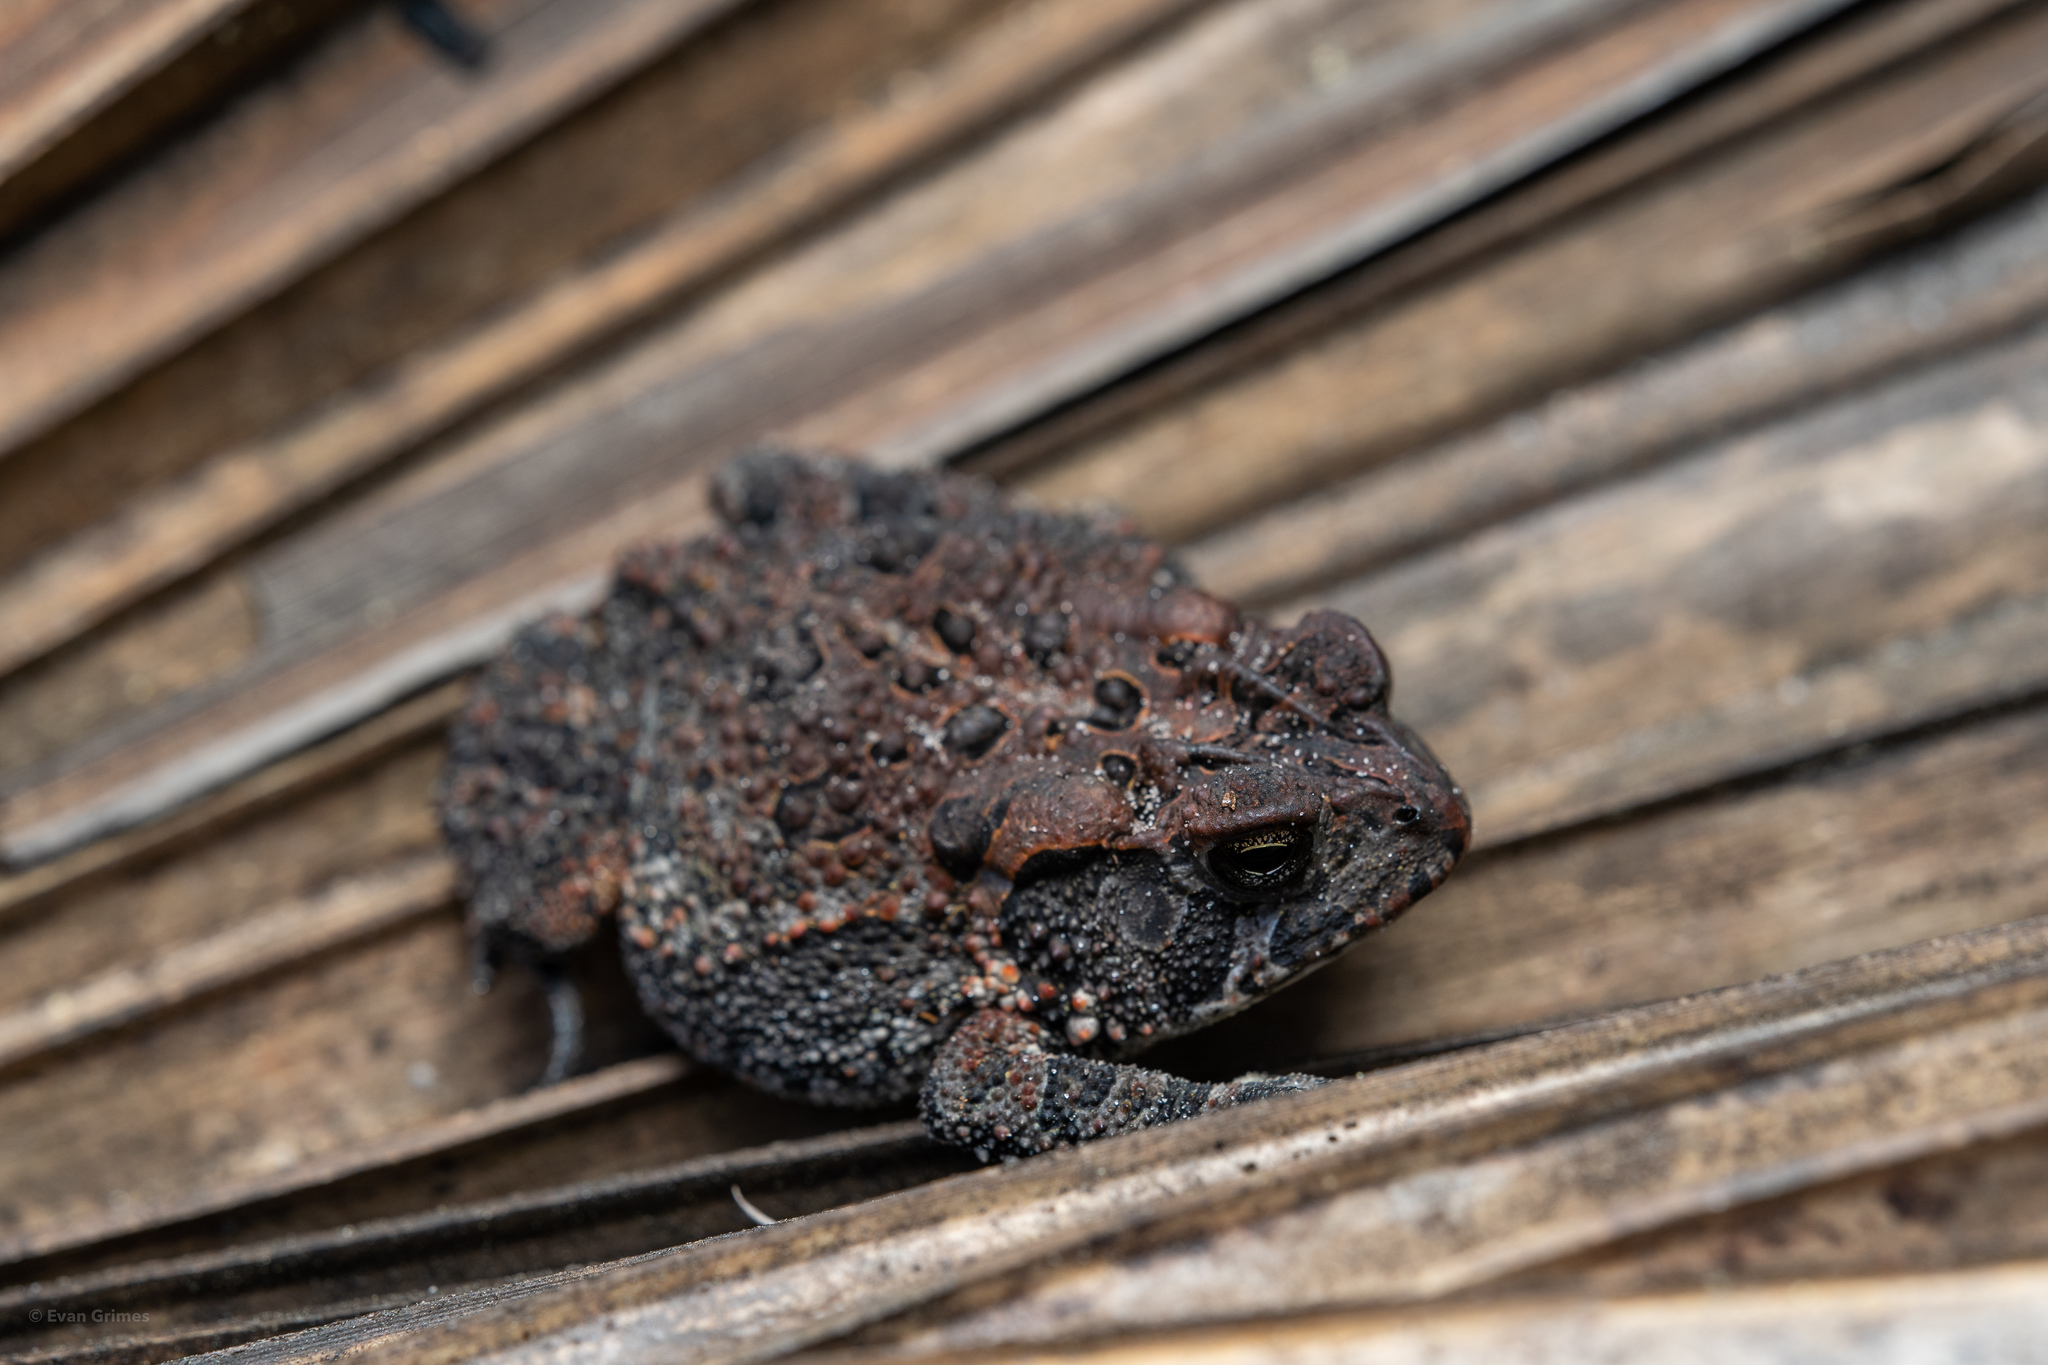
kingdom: Animalia
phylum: Chordata
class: Amphibia
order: Anura
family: Bufonidae
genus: Anaxyrus
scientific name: Anaxyrus terrestris
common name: Southern toad
